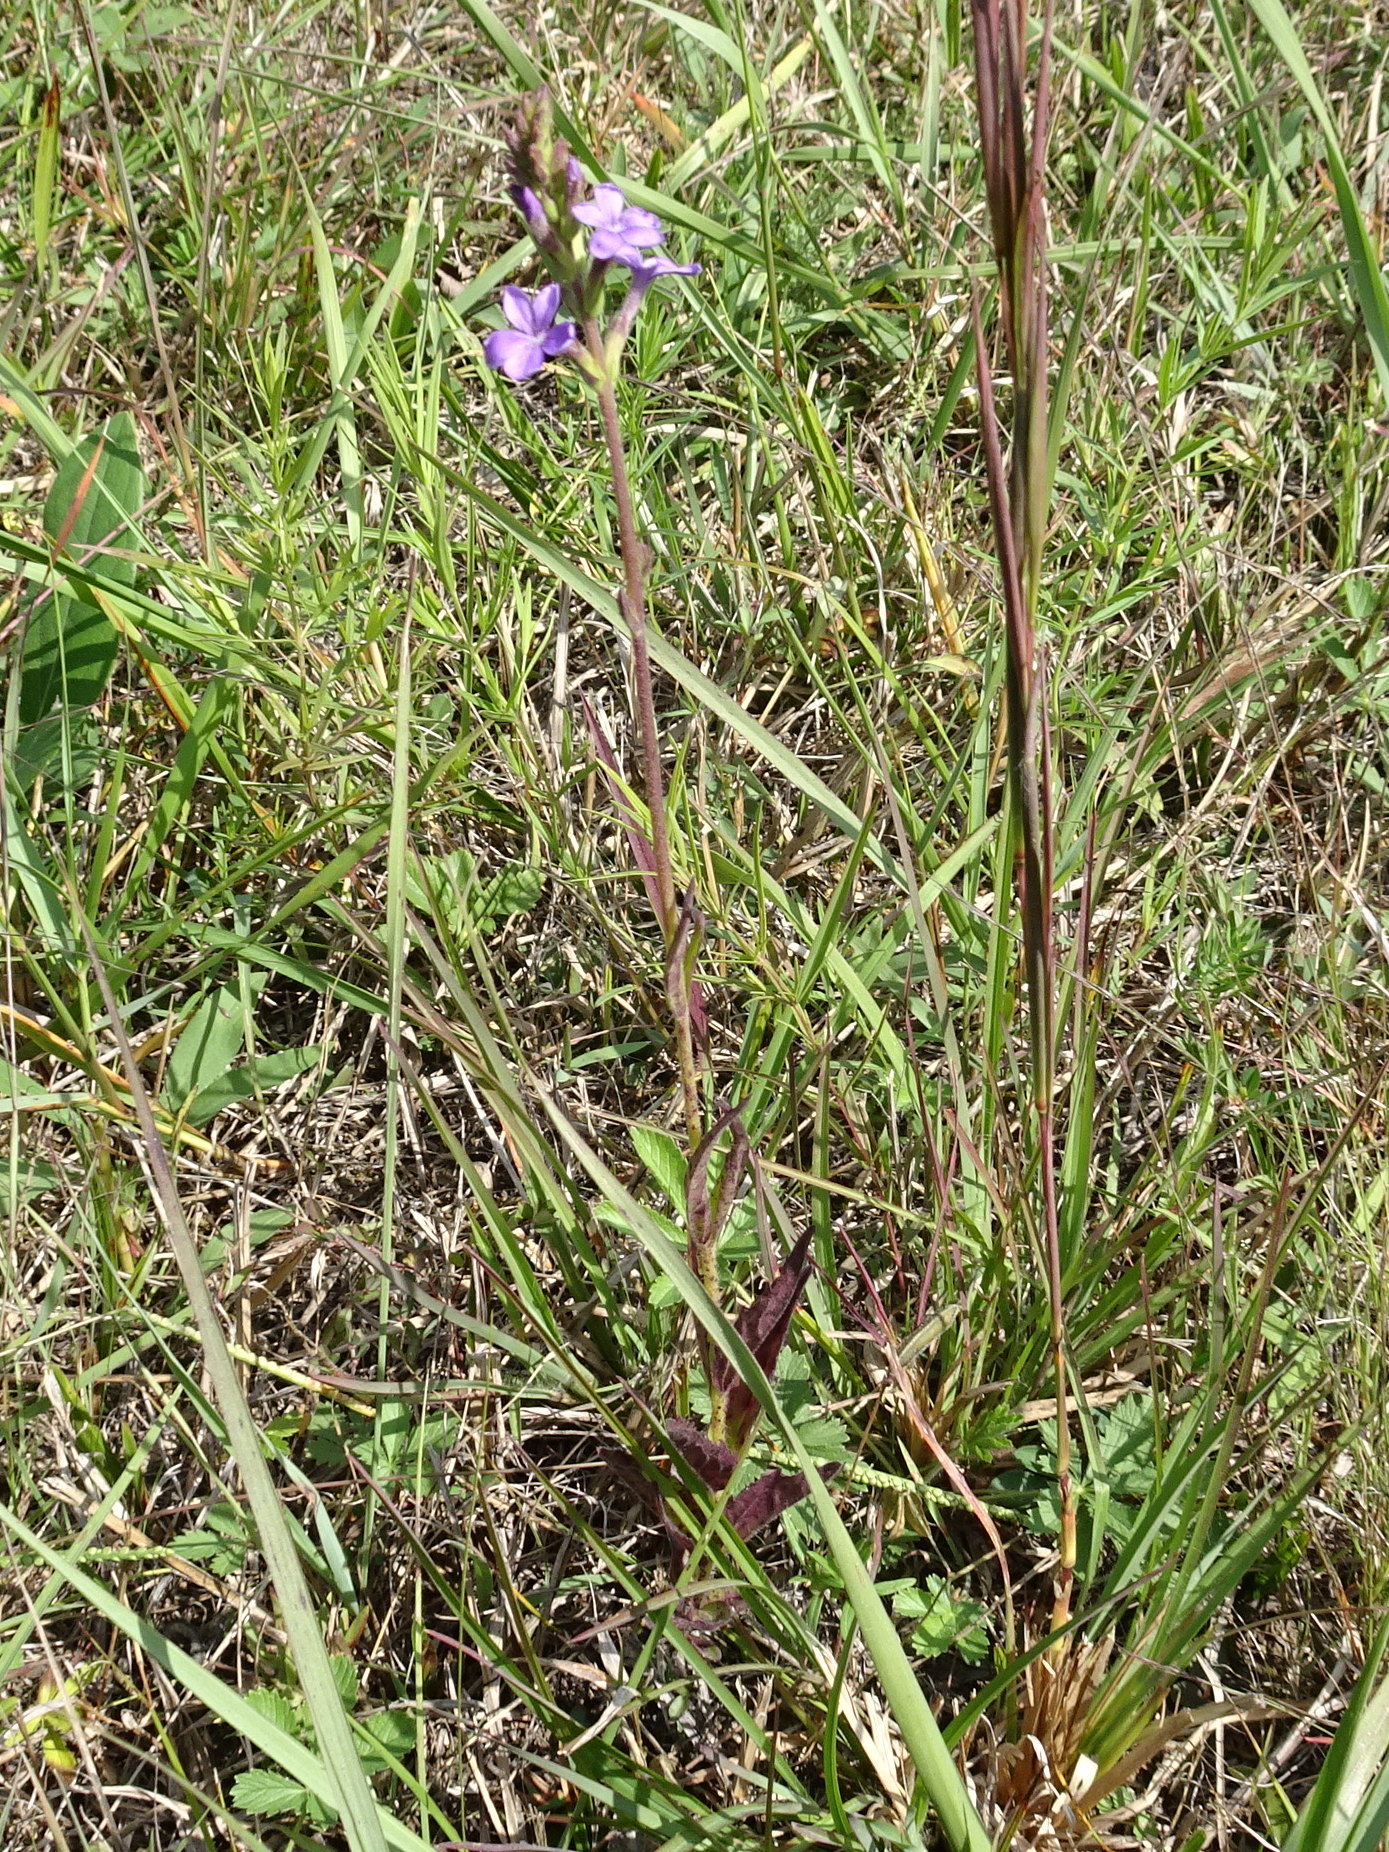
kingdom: Plantae
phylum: Tracheophyta
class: Magnoliopsida
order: Lamiales
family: Orobanchaceae
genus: Buchnera
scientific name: Buchnera americana
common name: American bluehearts
